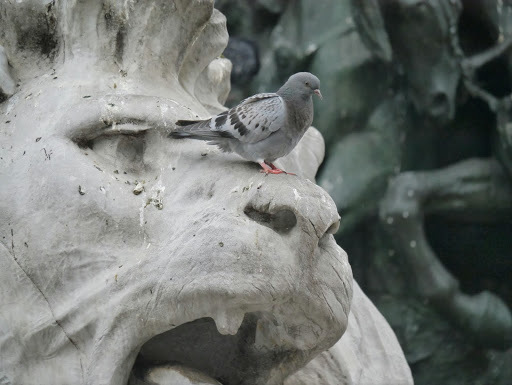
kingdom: Animalia
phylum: Chordata
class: Aves
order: Columbiformes
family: Columbidae
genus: Columba
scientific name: Columba livia
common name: Rock pigeon
